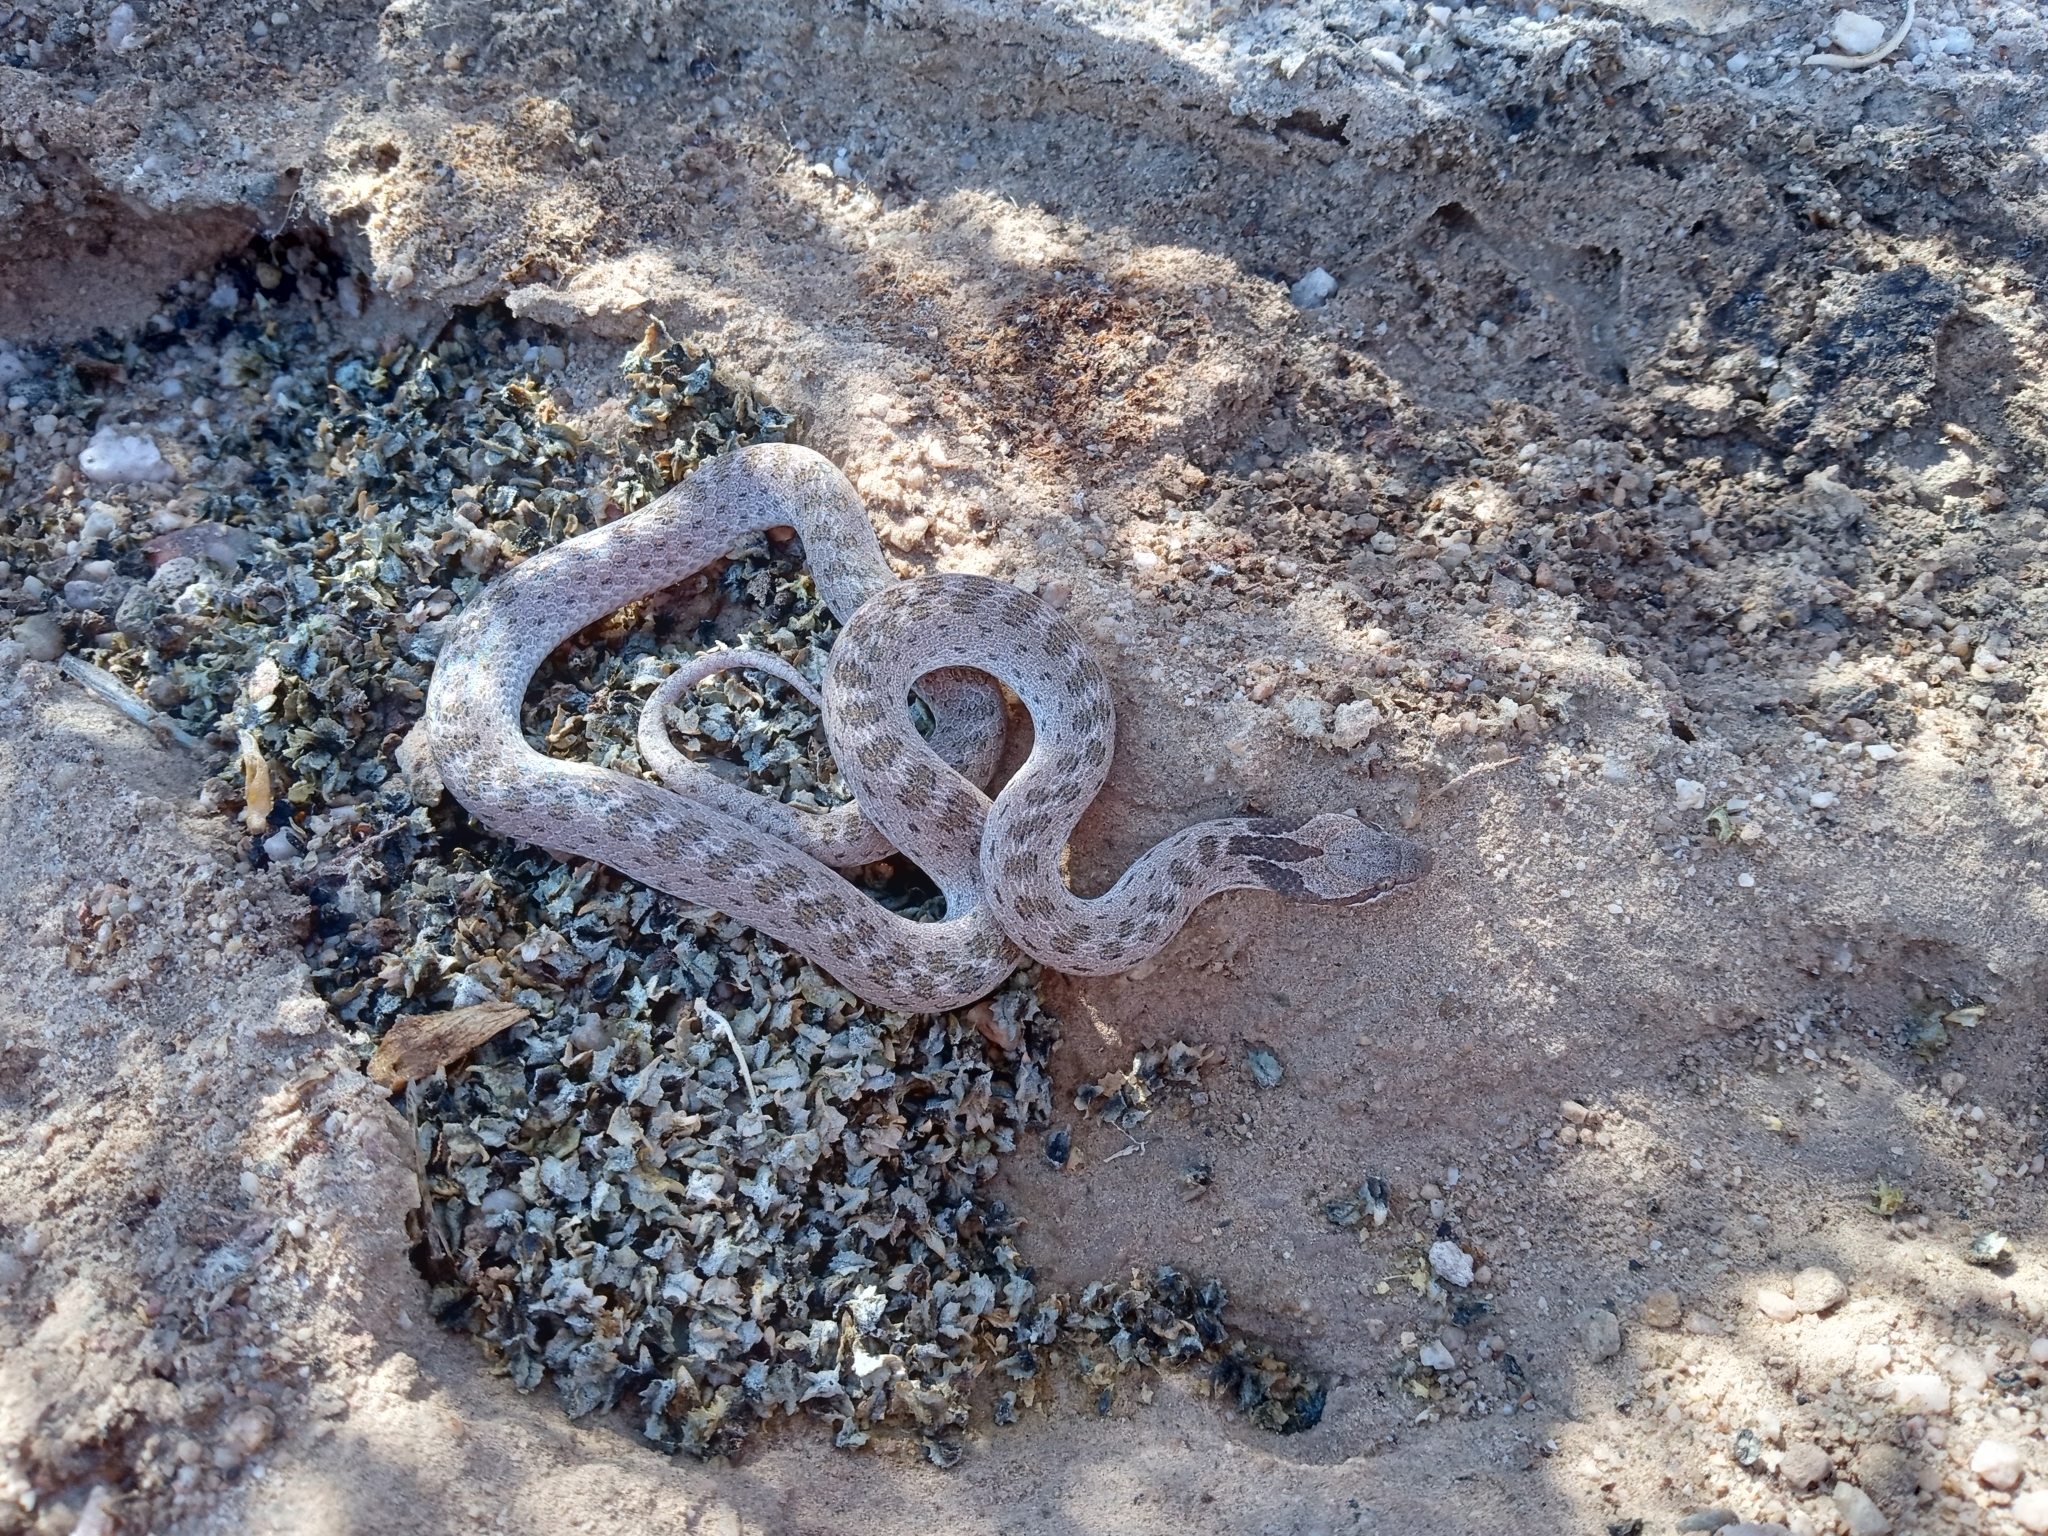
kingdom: Animalia
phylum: Chordata
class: Squamata
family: Colubridae
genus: Hypsiglena
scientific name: Hypsiglena chlorophaea
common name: Desert nightsnake
